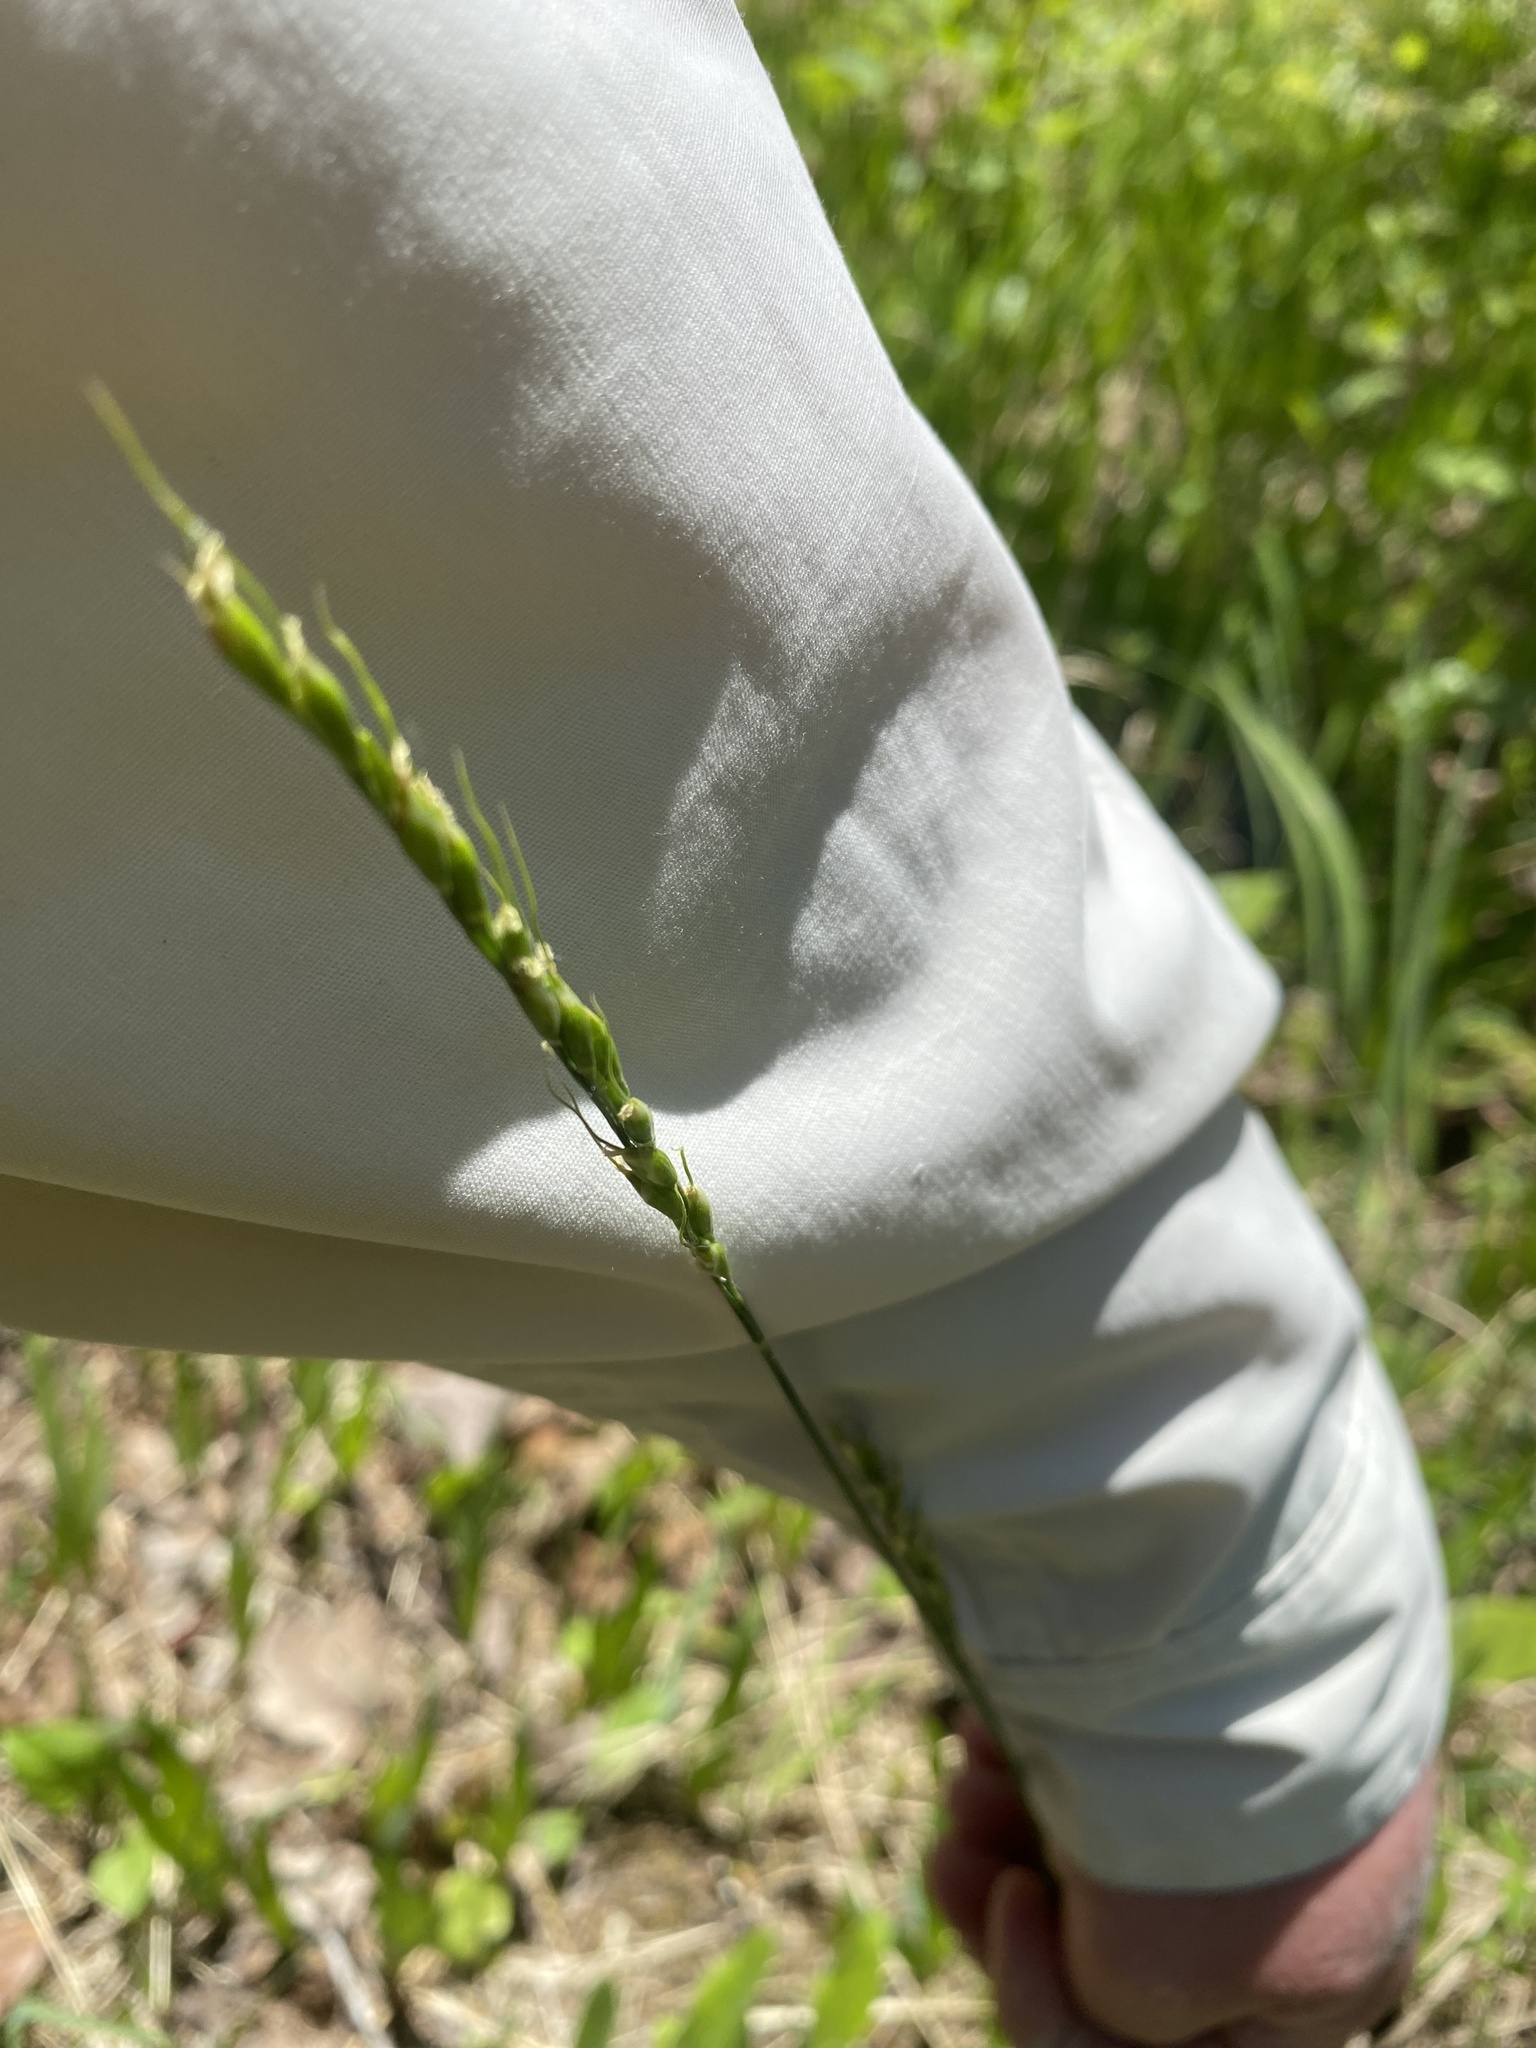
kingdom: Plantae
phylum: Tracheophyta
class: Liliopsida
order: Poales
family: Poaceae
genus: Oryzopsis
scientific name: Oryzopsis asperifolia
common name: Rough-leaved mountain rice
